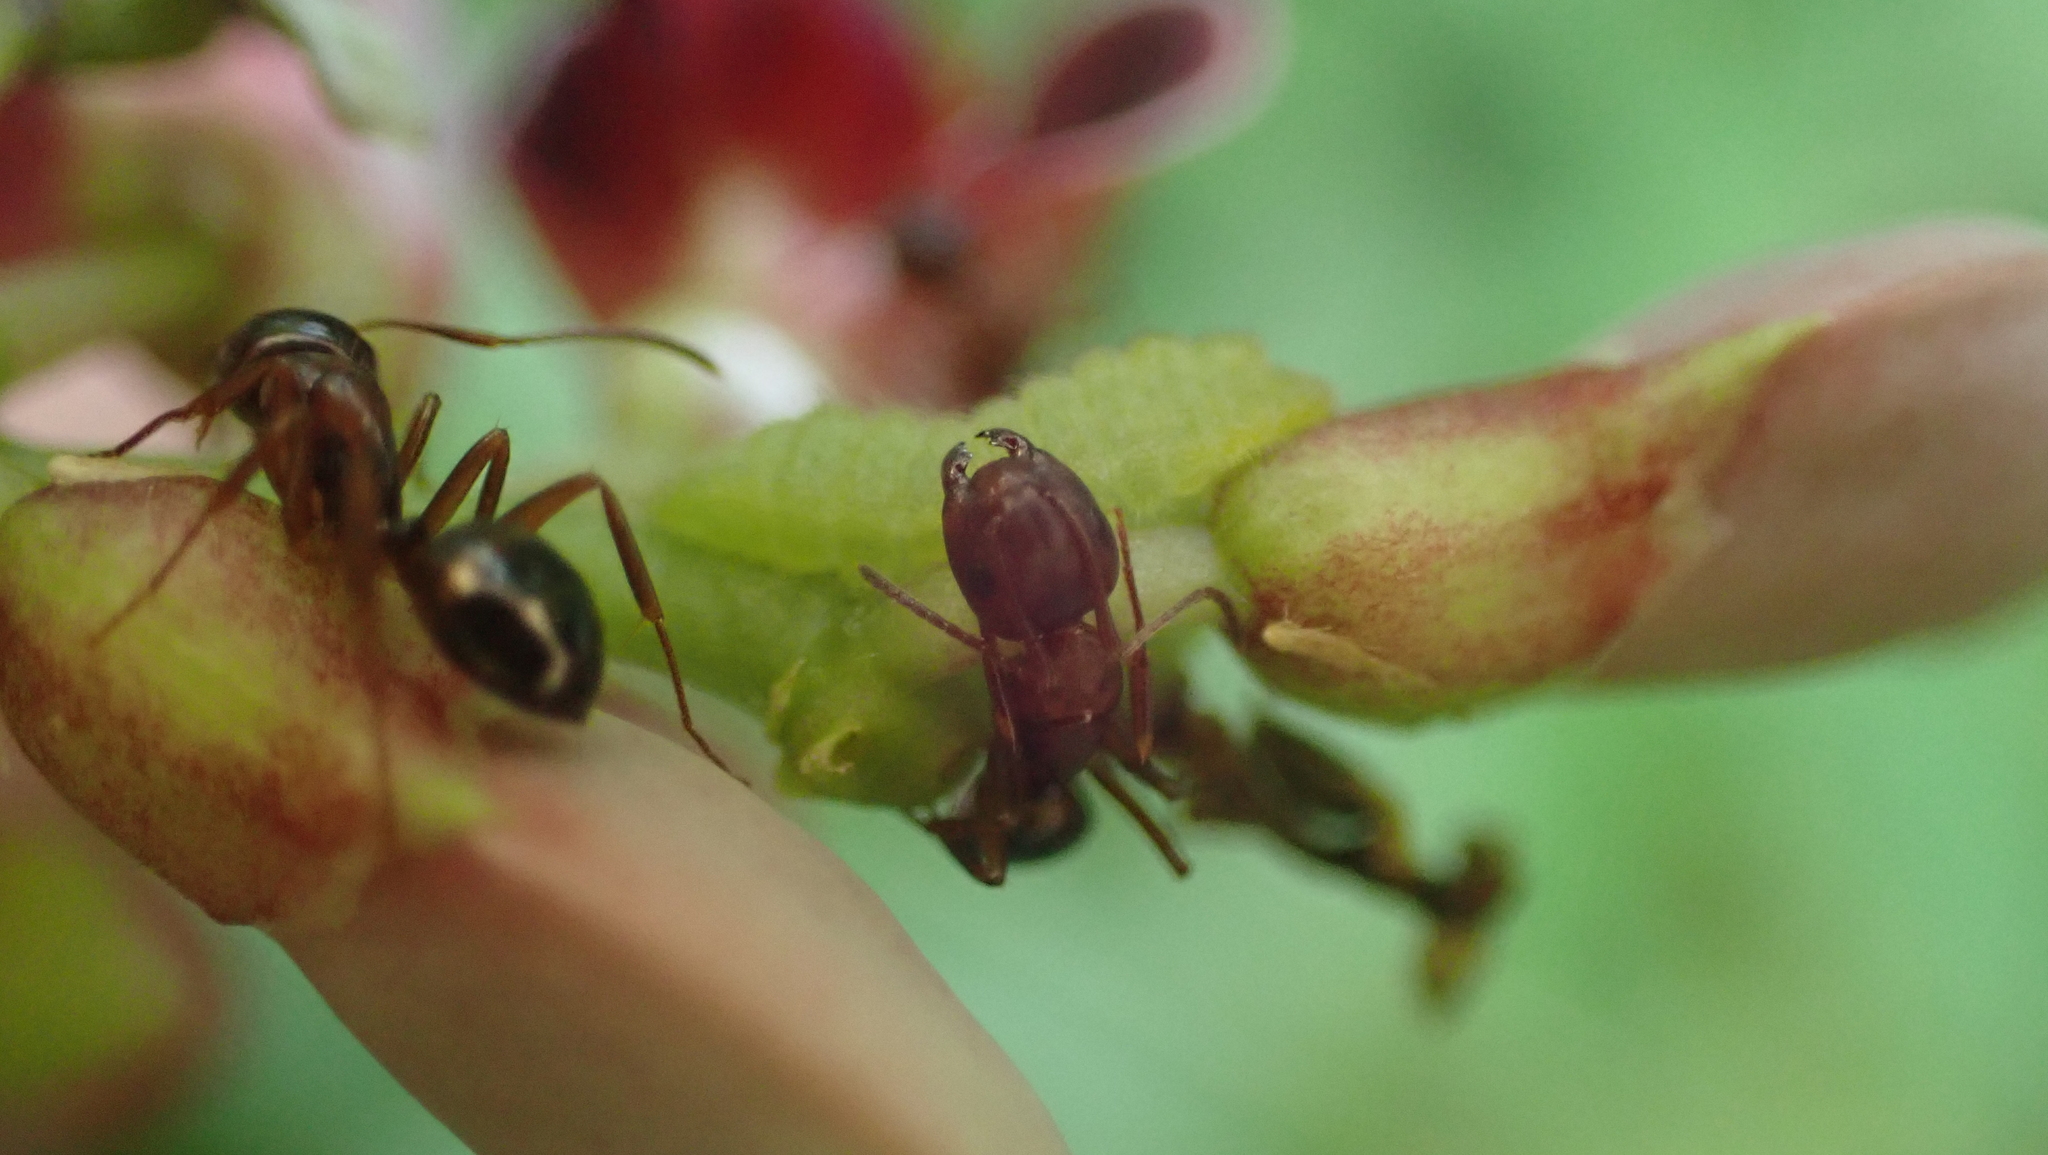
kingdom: Animalia
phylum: Arthropoda
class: Insecta
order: Hymenoptera
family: Formicidae
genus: Camponotus
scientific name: Camponotus subbarbatus
